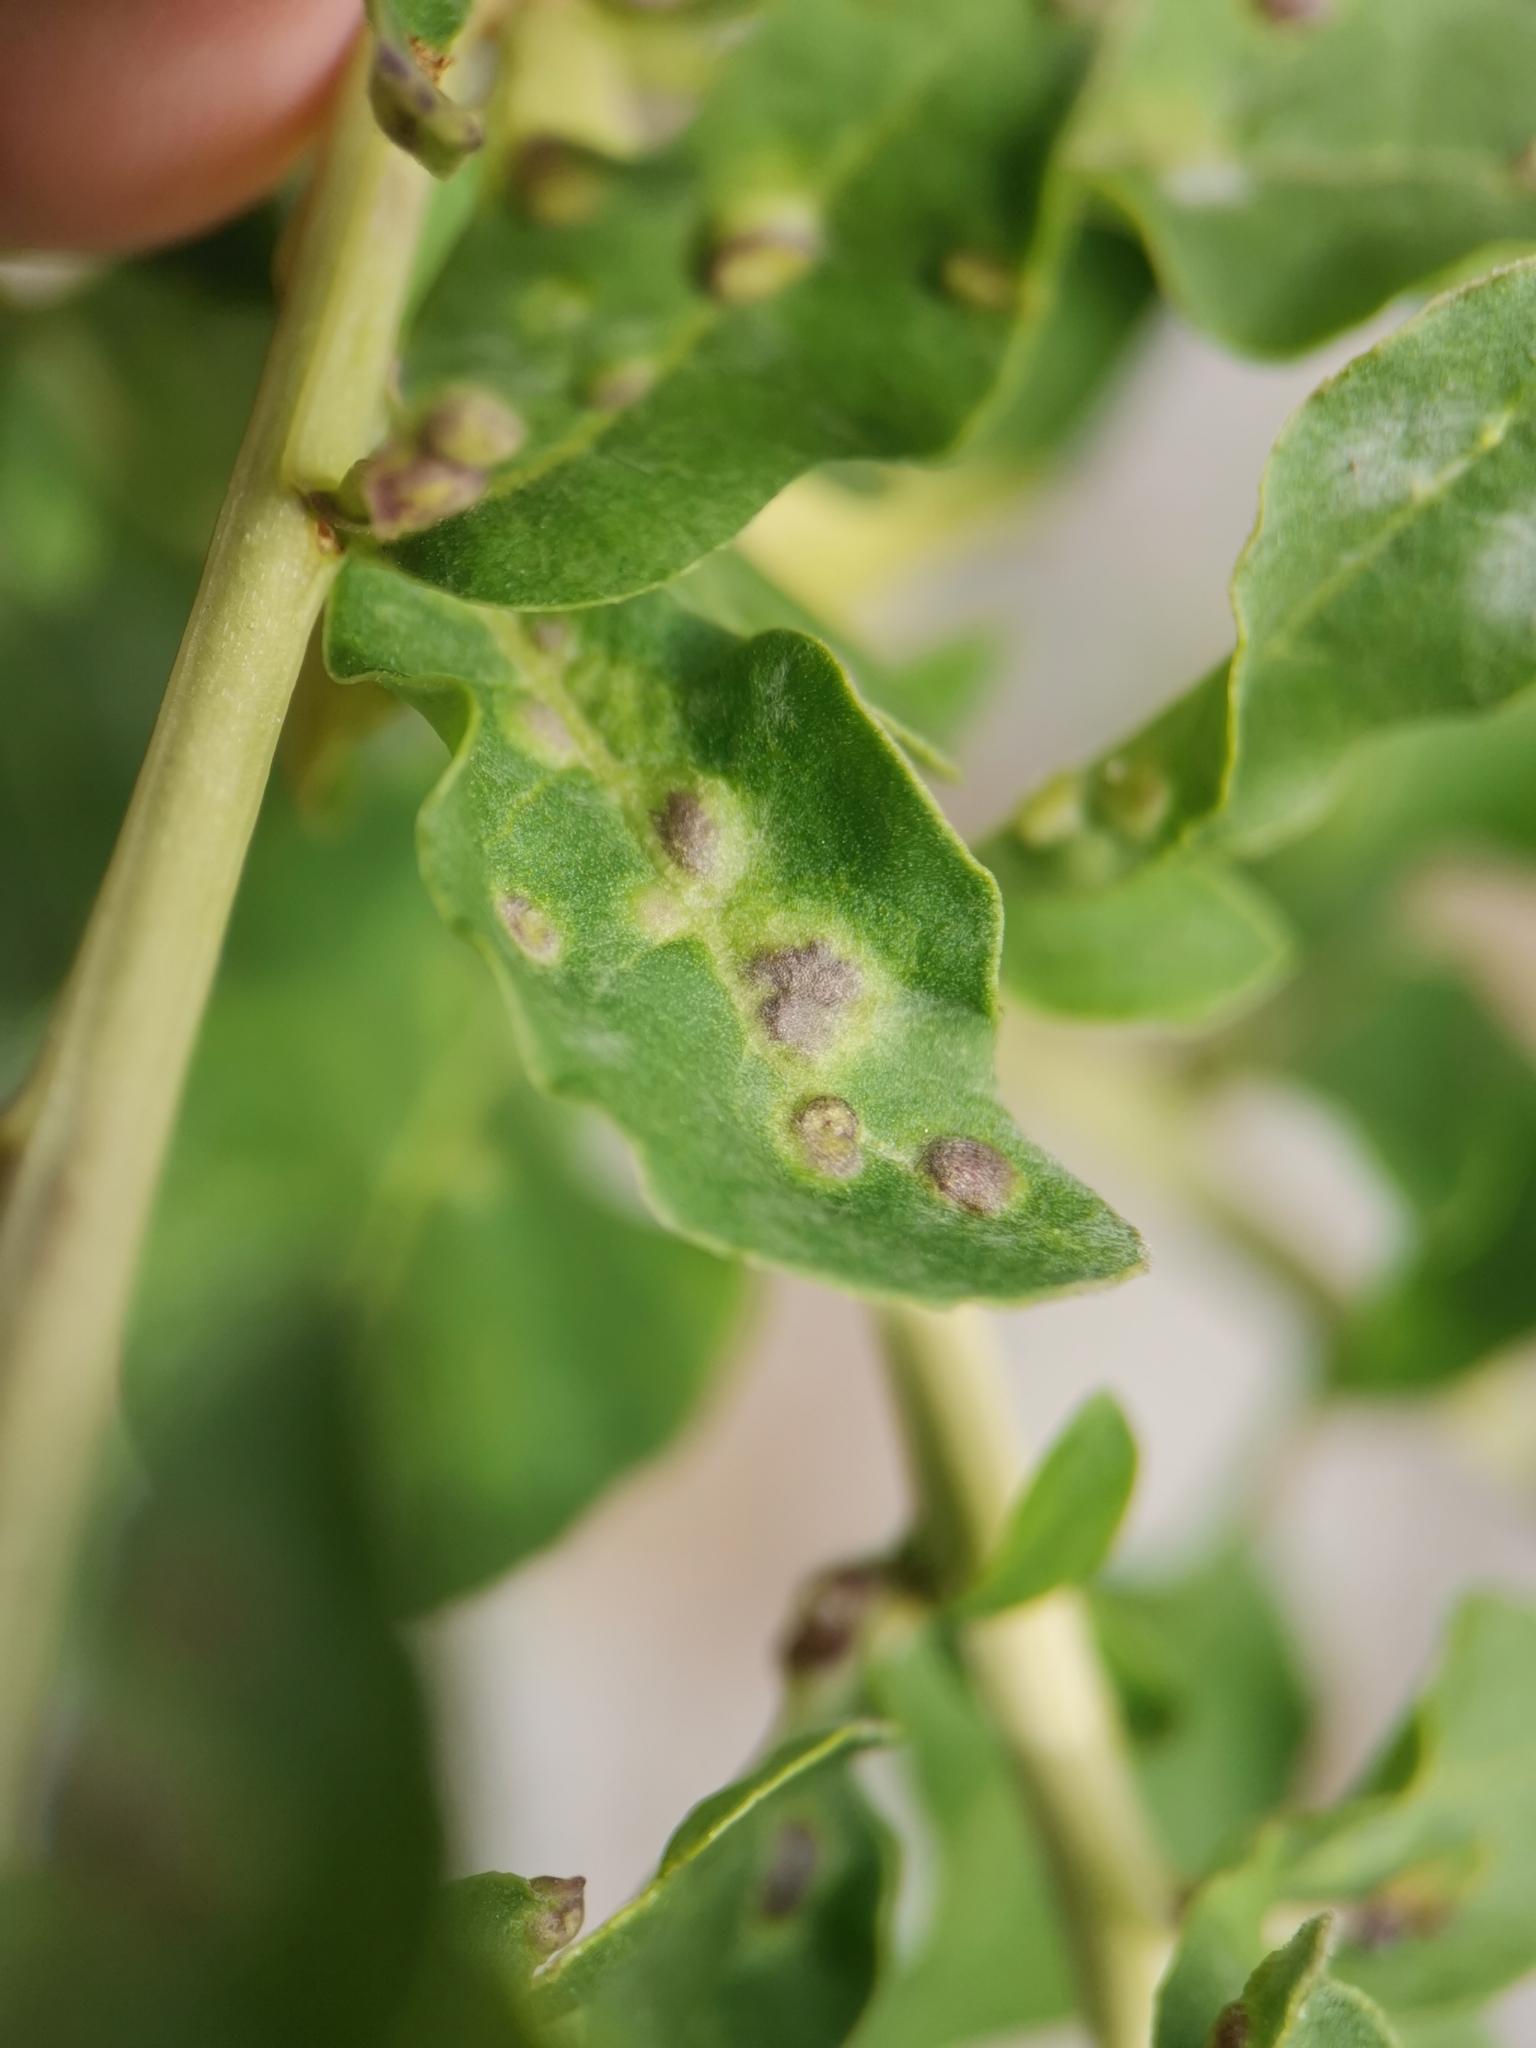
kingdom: Animalia
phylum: Arthropoda
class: Arachnida
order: Trombidiformes
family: Eriophyidae
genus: Aceria
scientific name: Aceria kuko
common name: Goji gall mite
